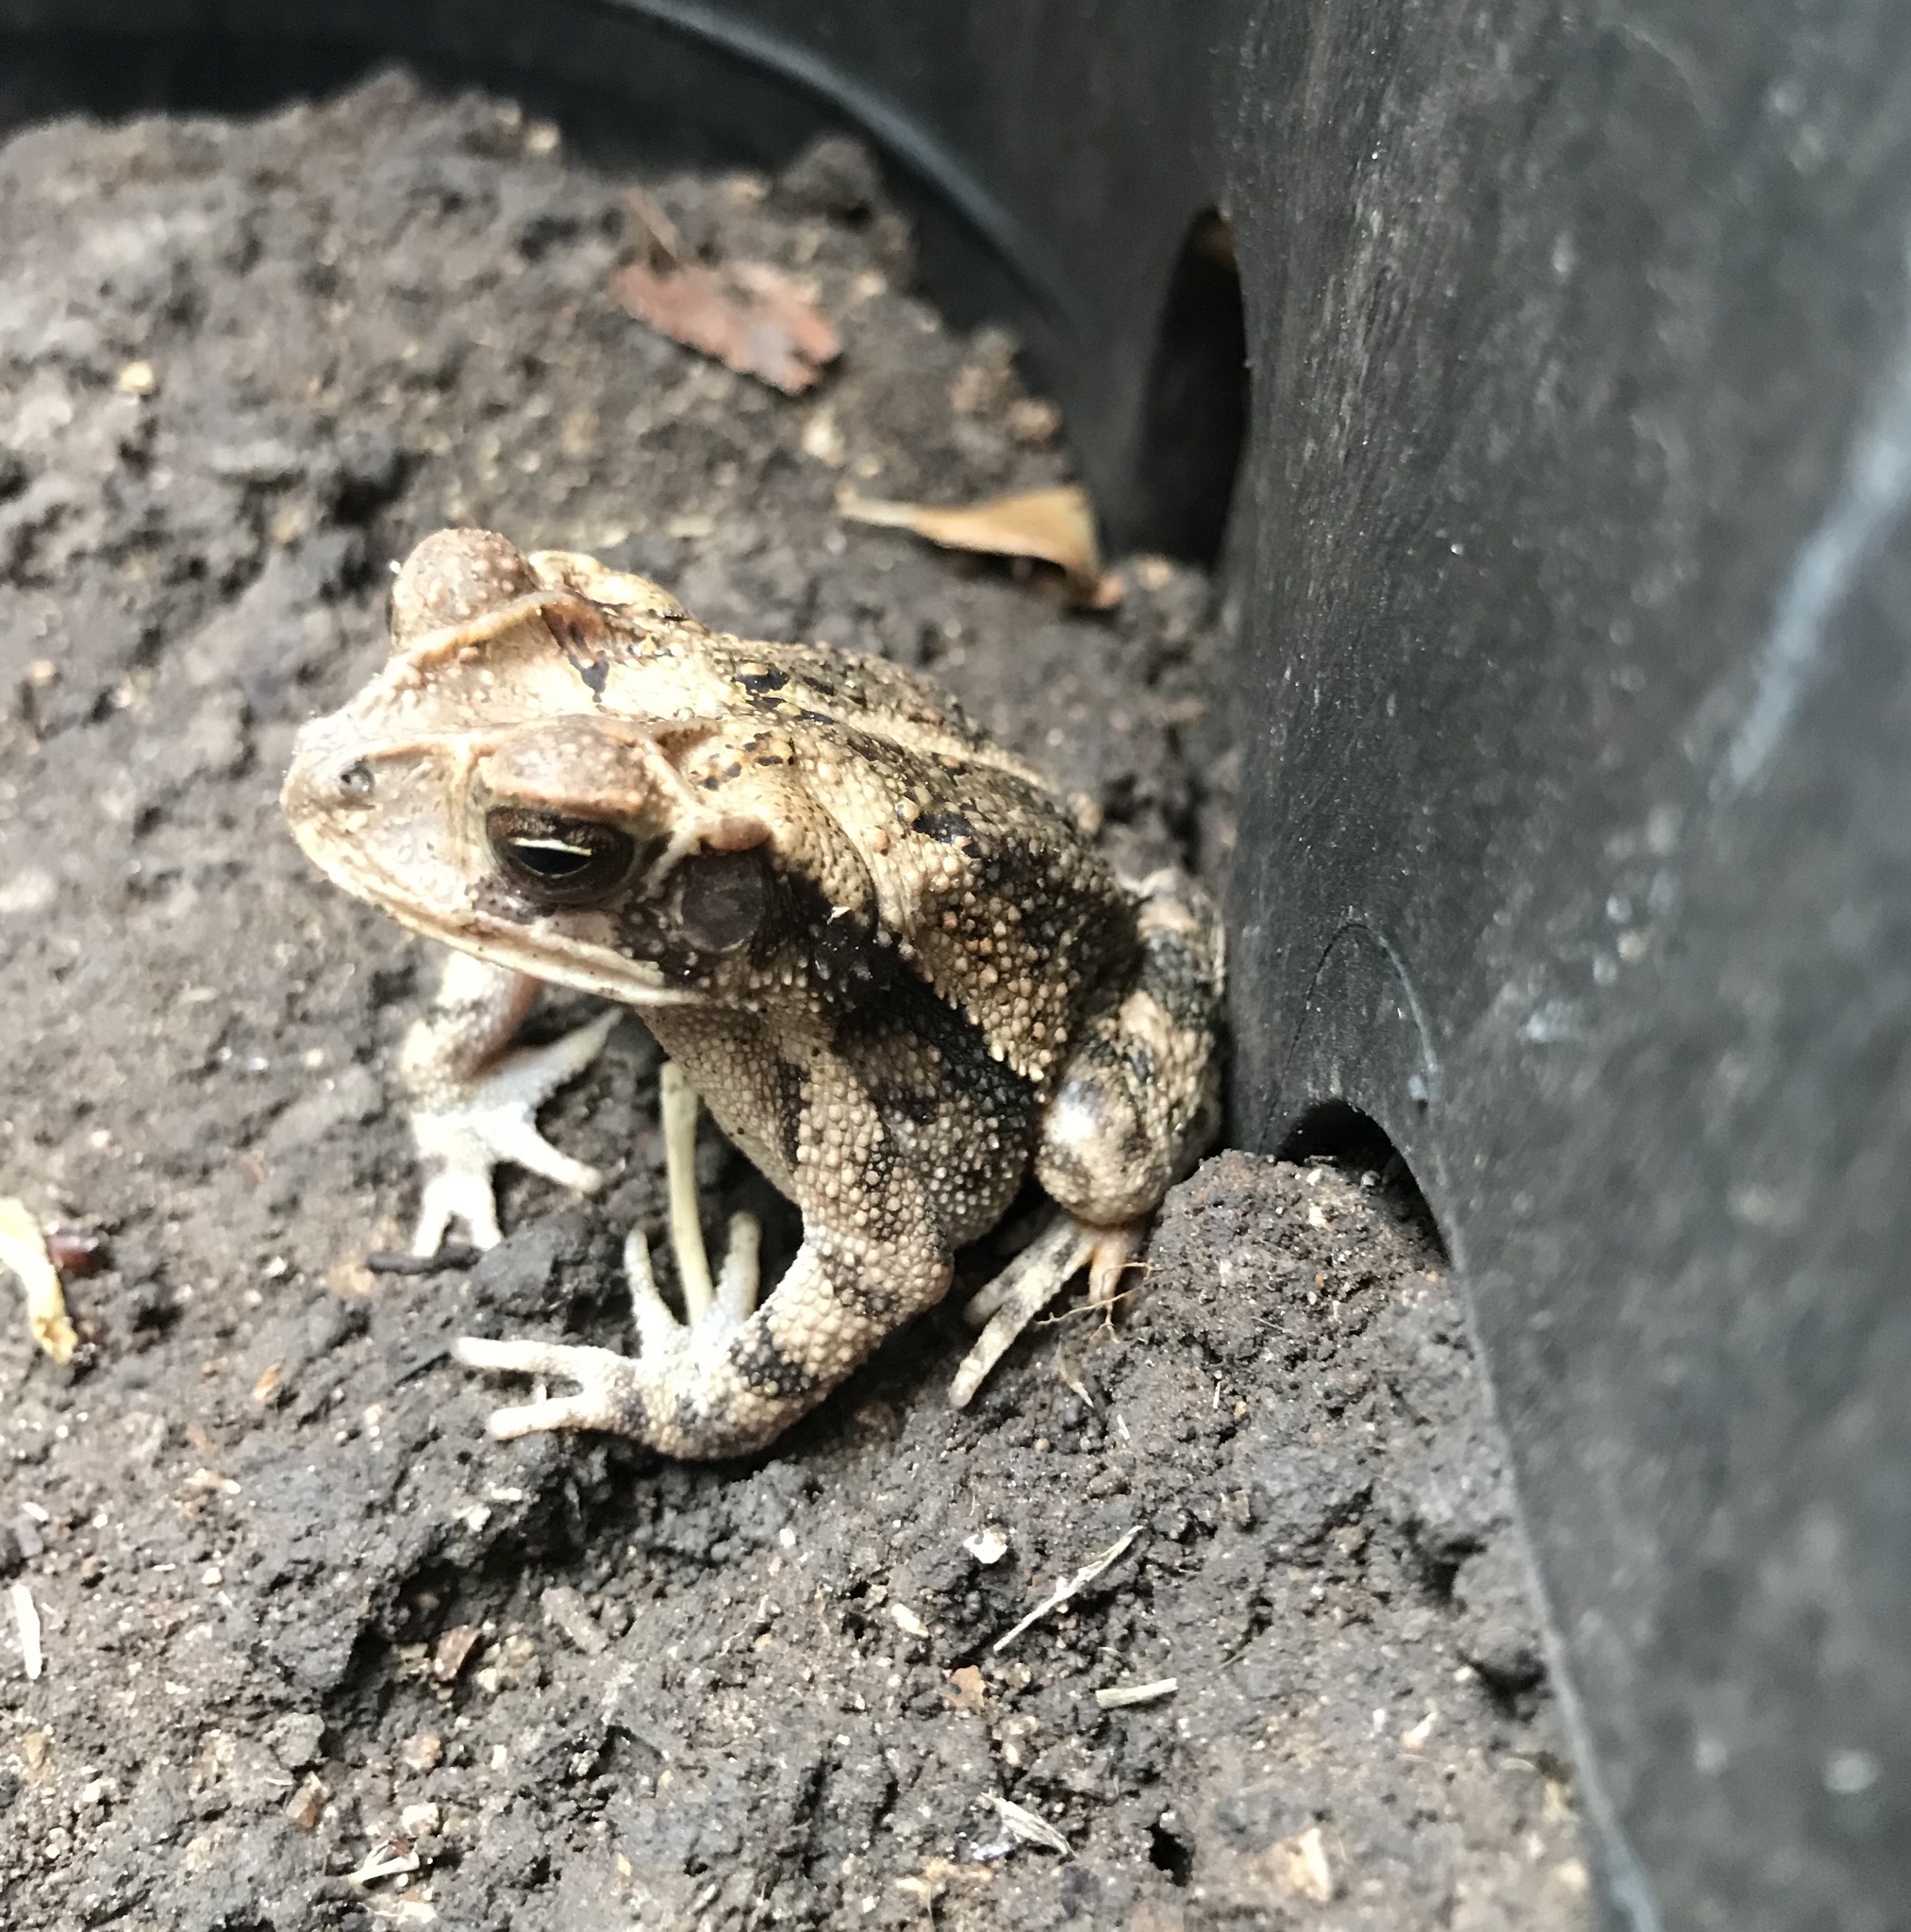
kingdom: Animalia
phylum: Chordata
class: Amphibia
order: Anura
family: Bufonidae
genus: Incilius
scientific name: Incilius nebulifer
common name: Gulf coast toad
